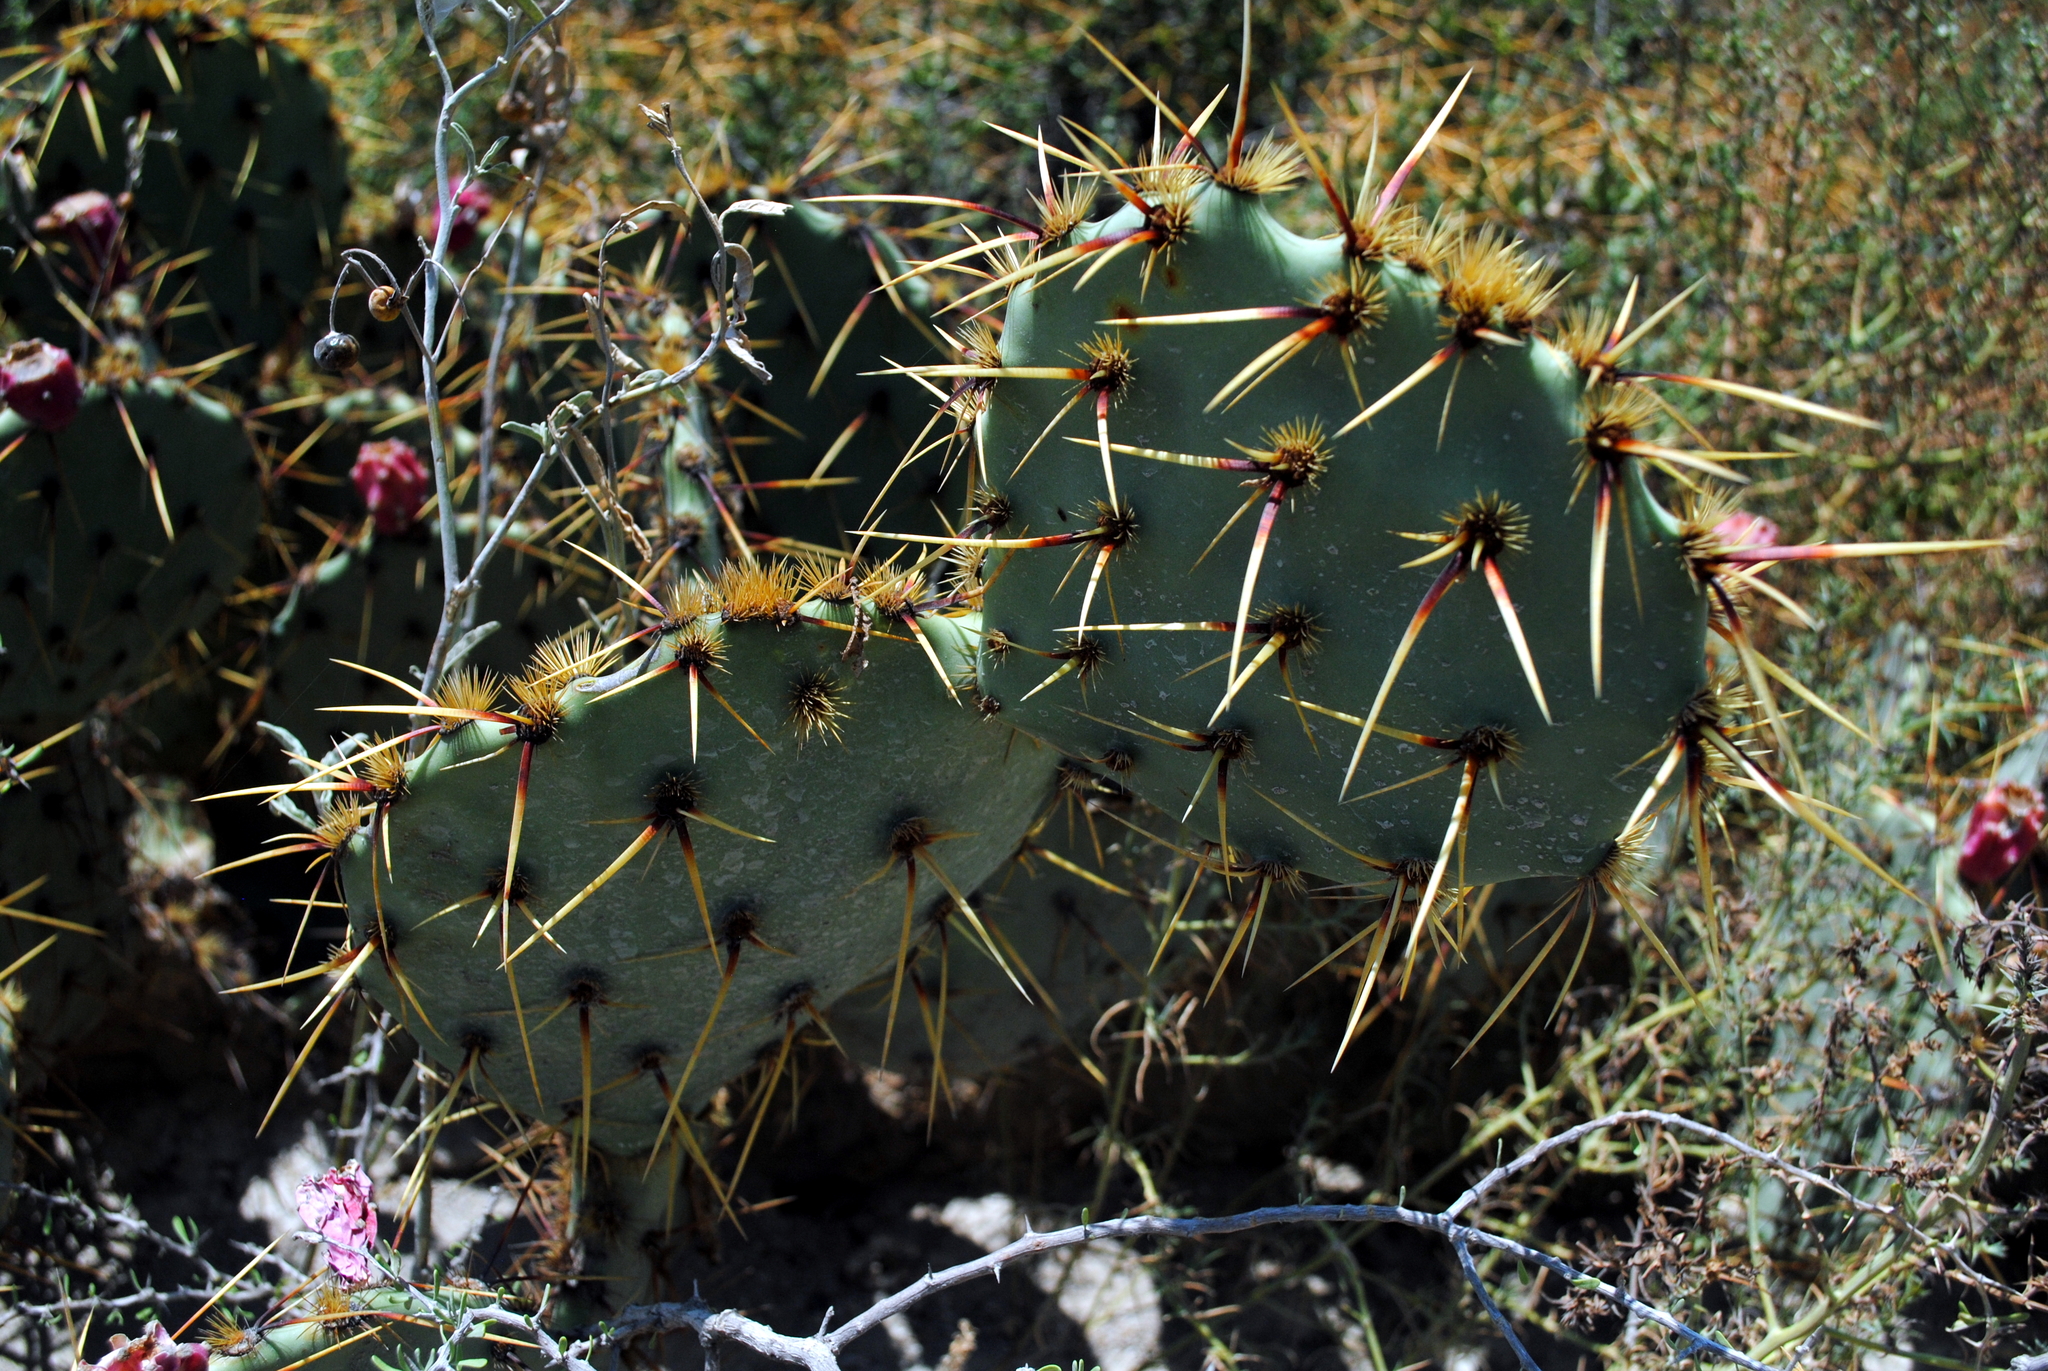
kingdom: Plantae
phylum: Tracheophyta
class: Magnoliopsida
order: Caryophyllales
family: Cactaceae
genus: Opuntia
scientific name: Opuntia phaeacantha
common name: New mexico prickly-pear
